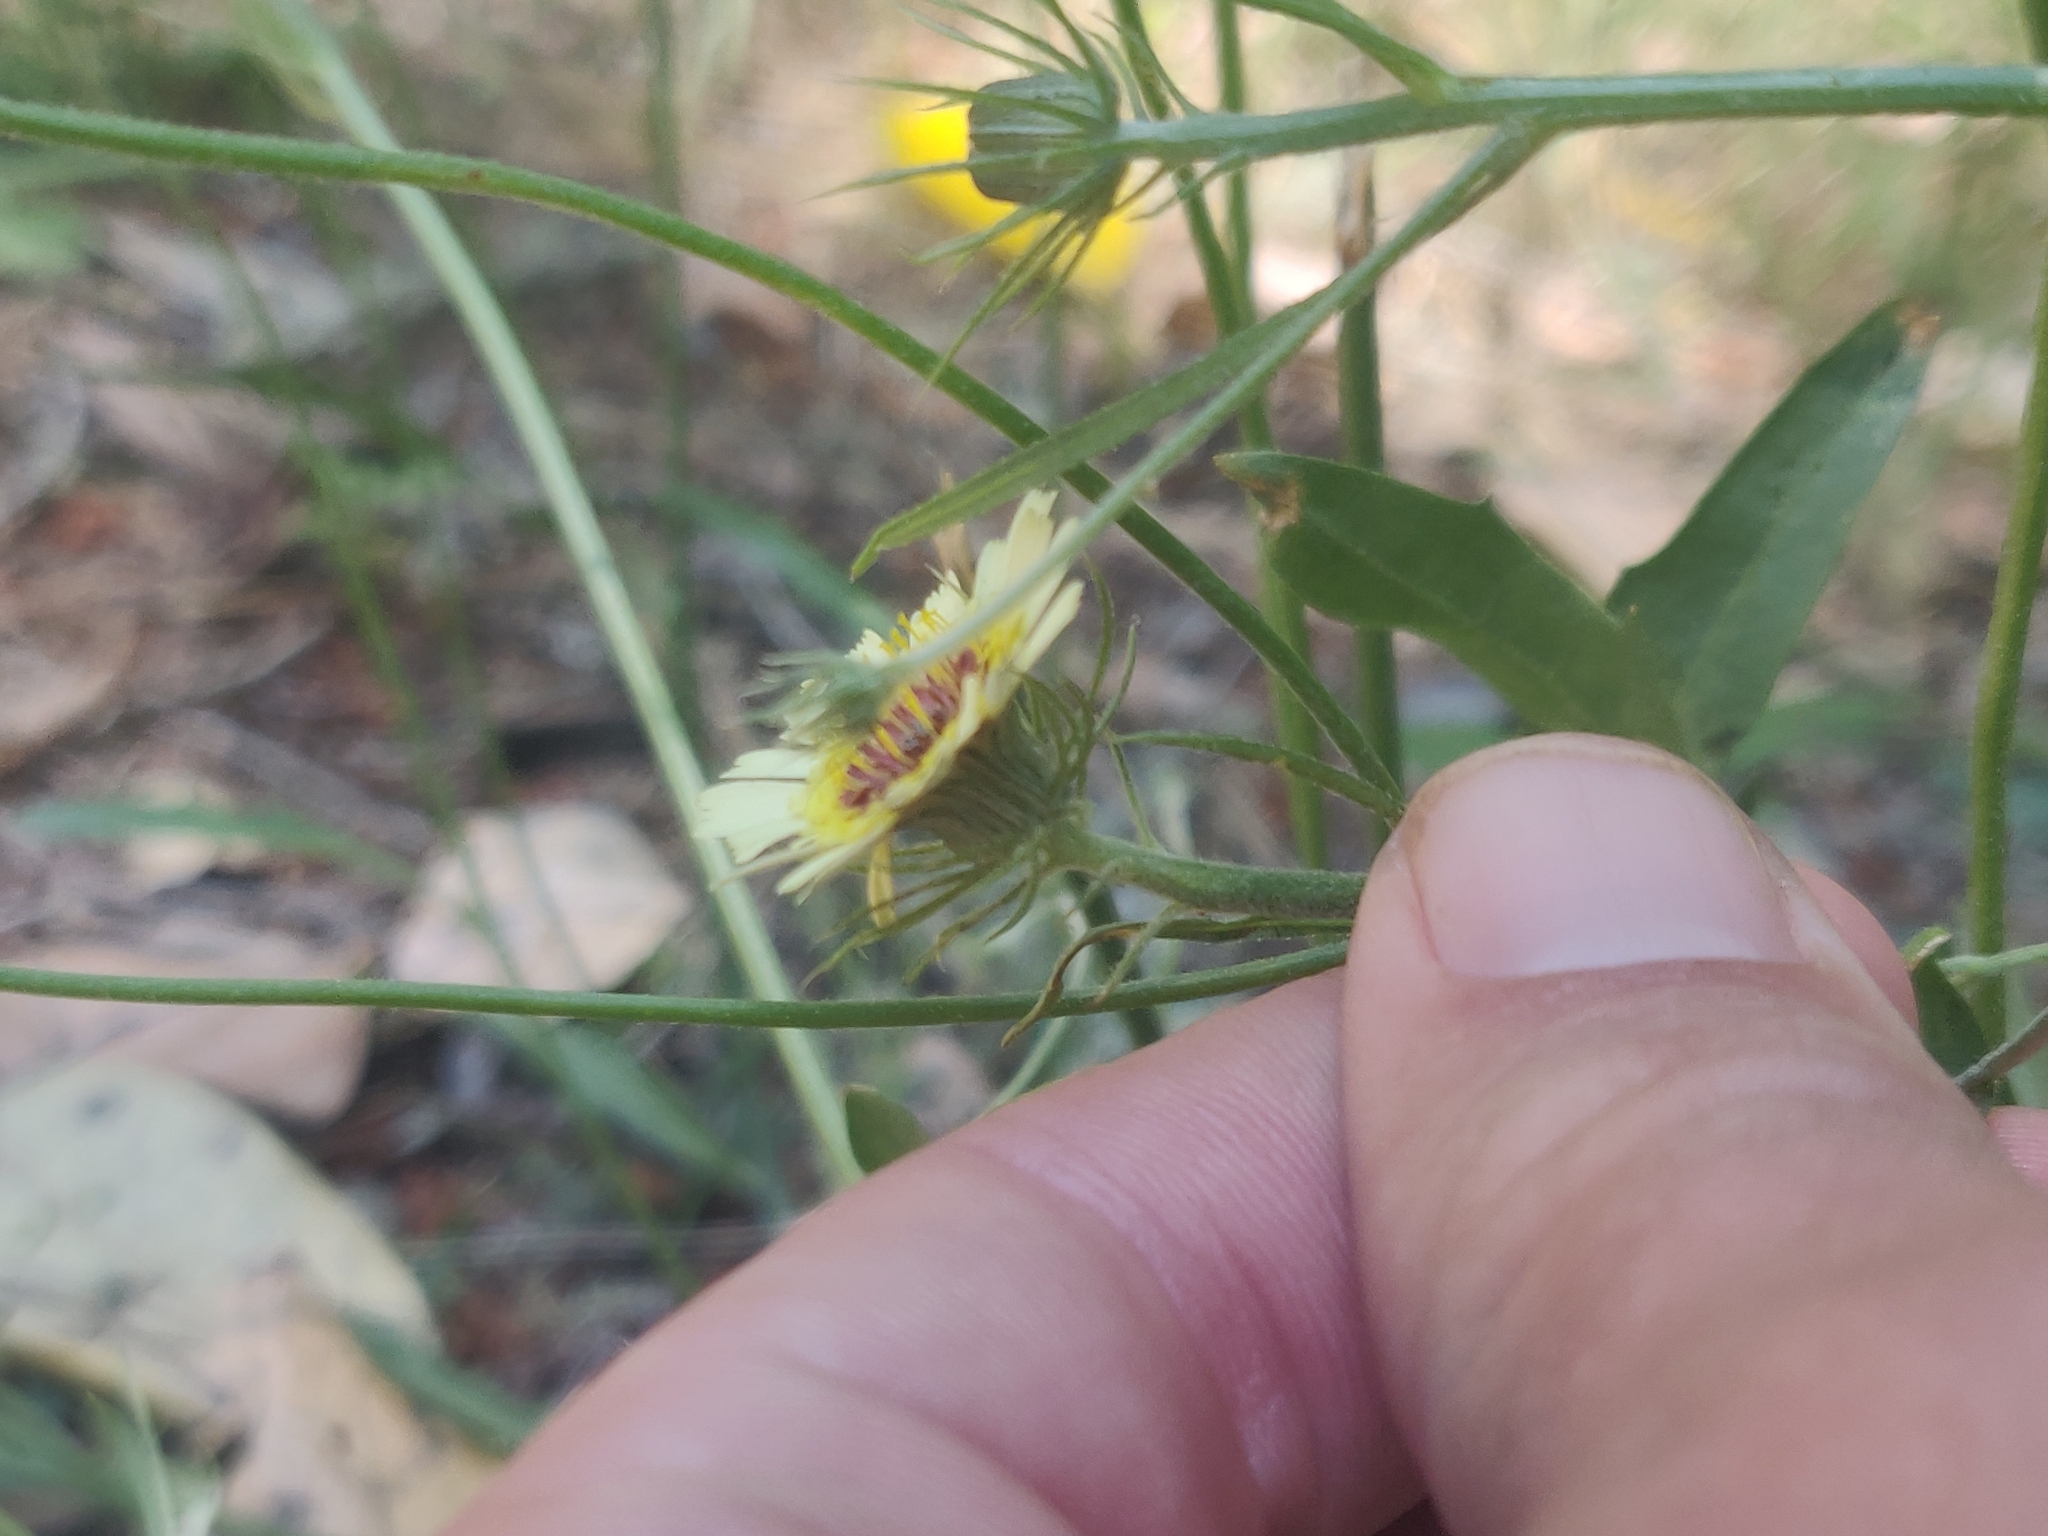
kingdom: Plantae
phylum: Tracheophyta
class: Magnoliopsida
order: Asterales
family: Asteraceae
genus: Tolpis
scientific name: Tolpis barbata
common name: Yellow hawkweed
